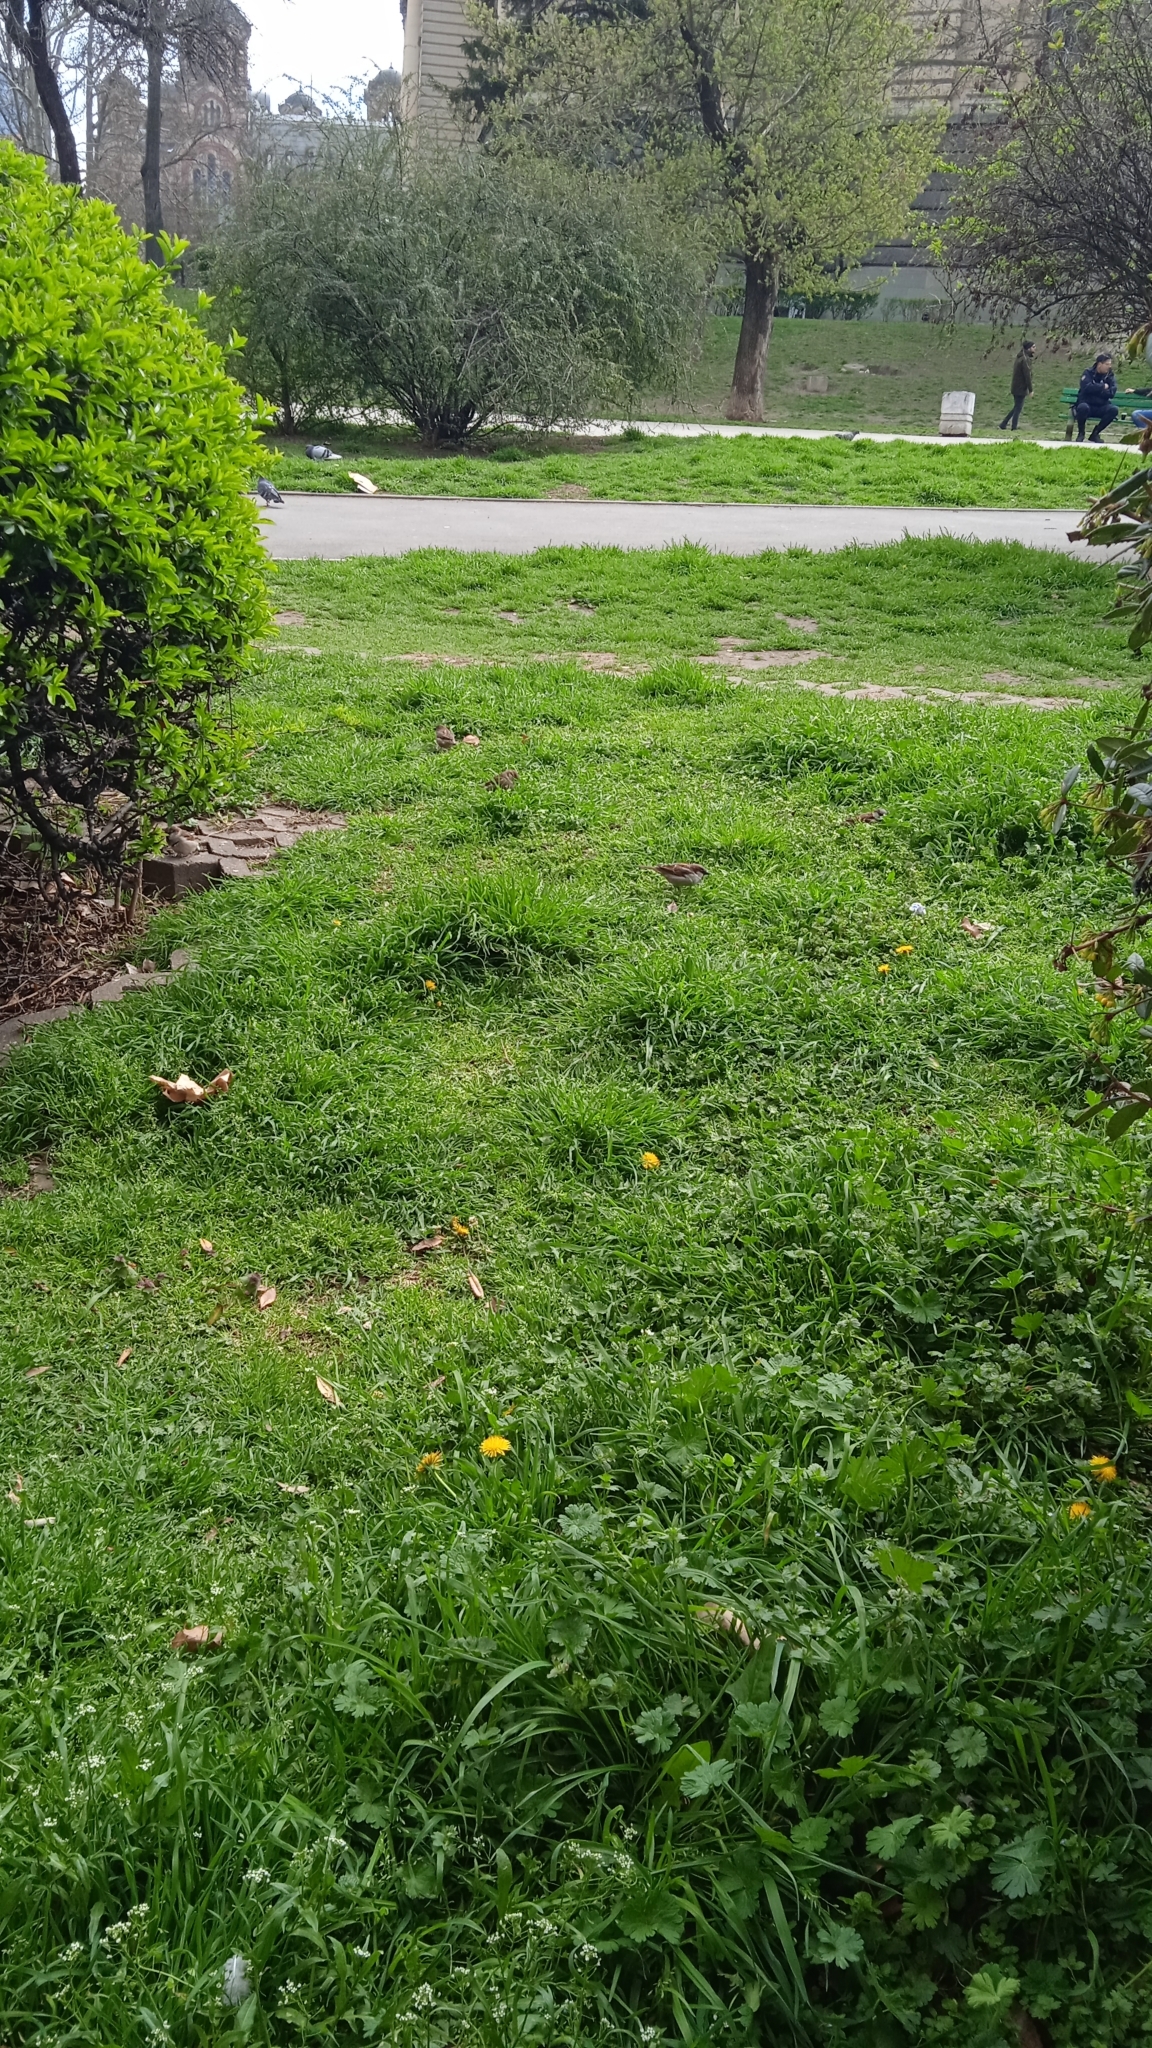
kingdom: Animalia
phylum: Chordata
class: Aves
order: Passeriformes
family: Passeridae
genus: Passer
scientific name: Passer domesticus
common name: House sparrow
